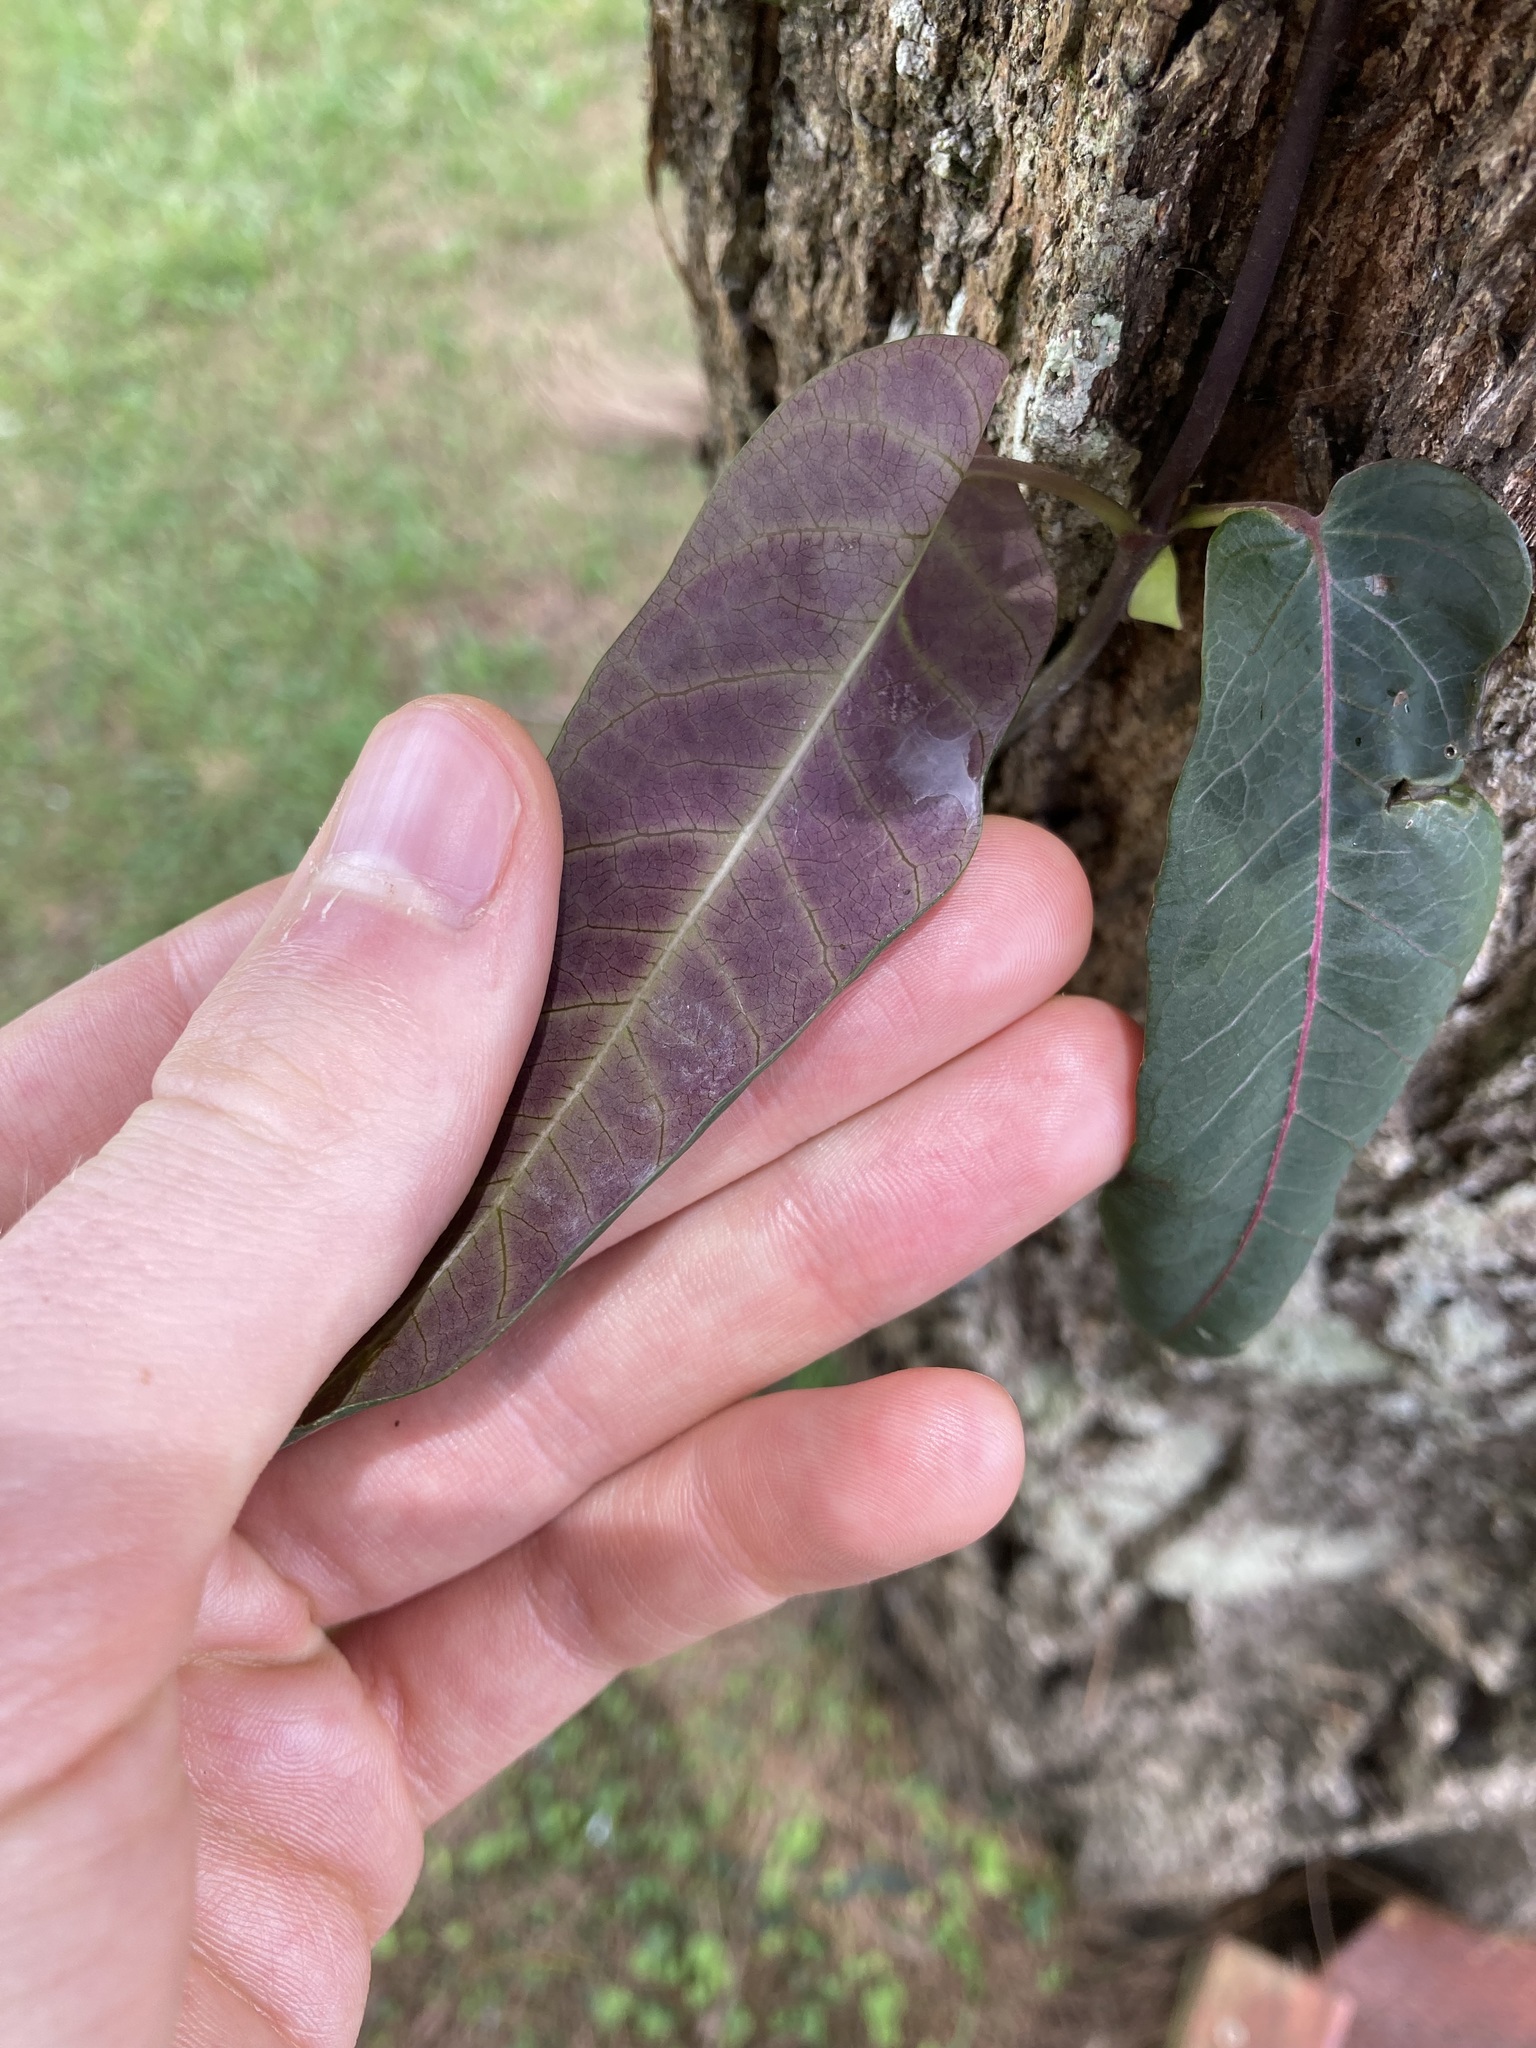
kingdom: Plantae
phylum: Tracheophyta
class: Magnoliopsida
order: Gentianales
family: Apocynaceae
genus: Parsonsia
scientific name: Parsonsia straminea
